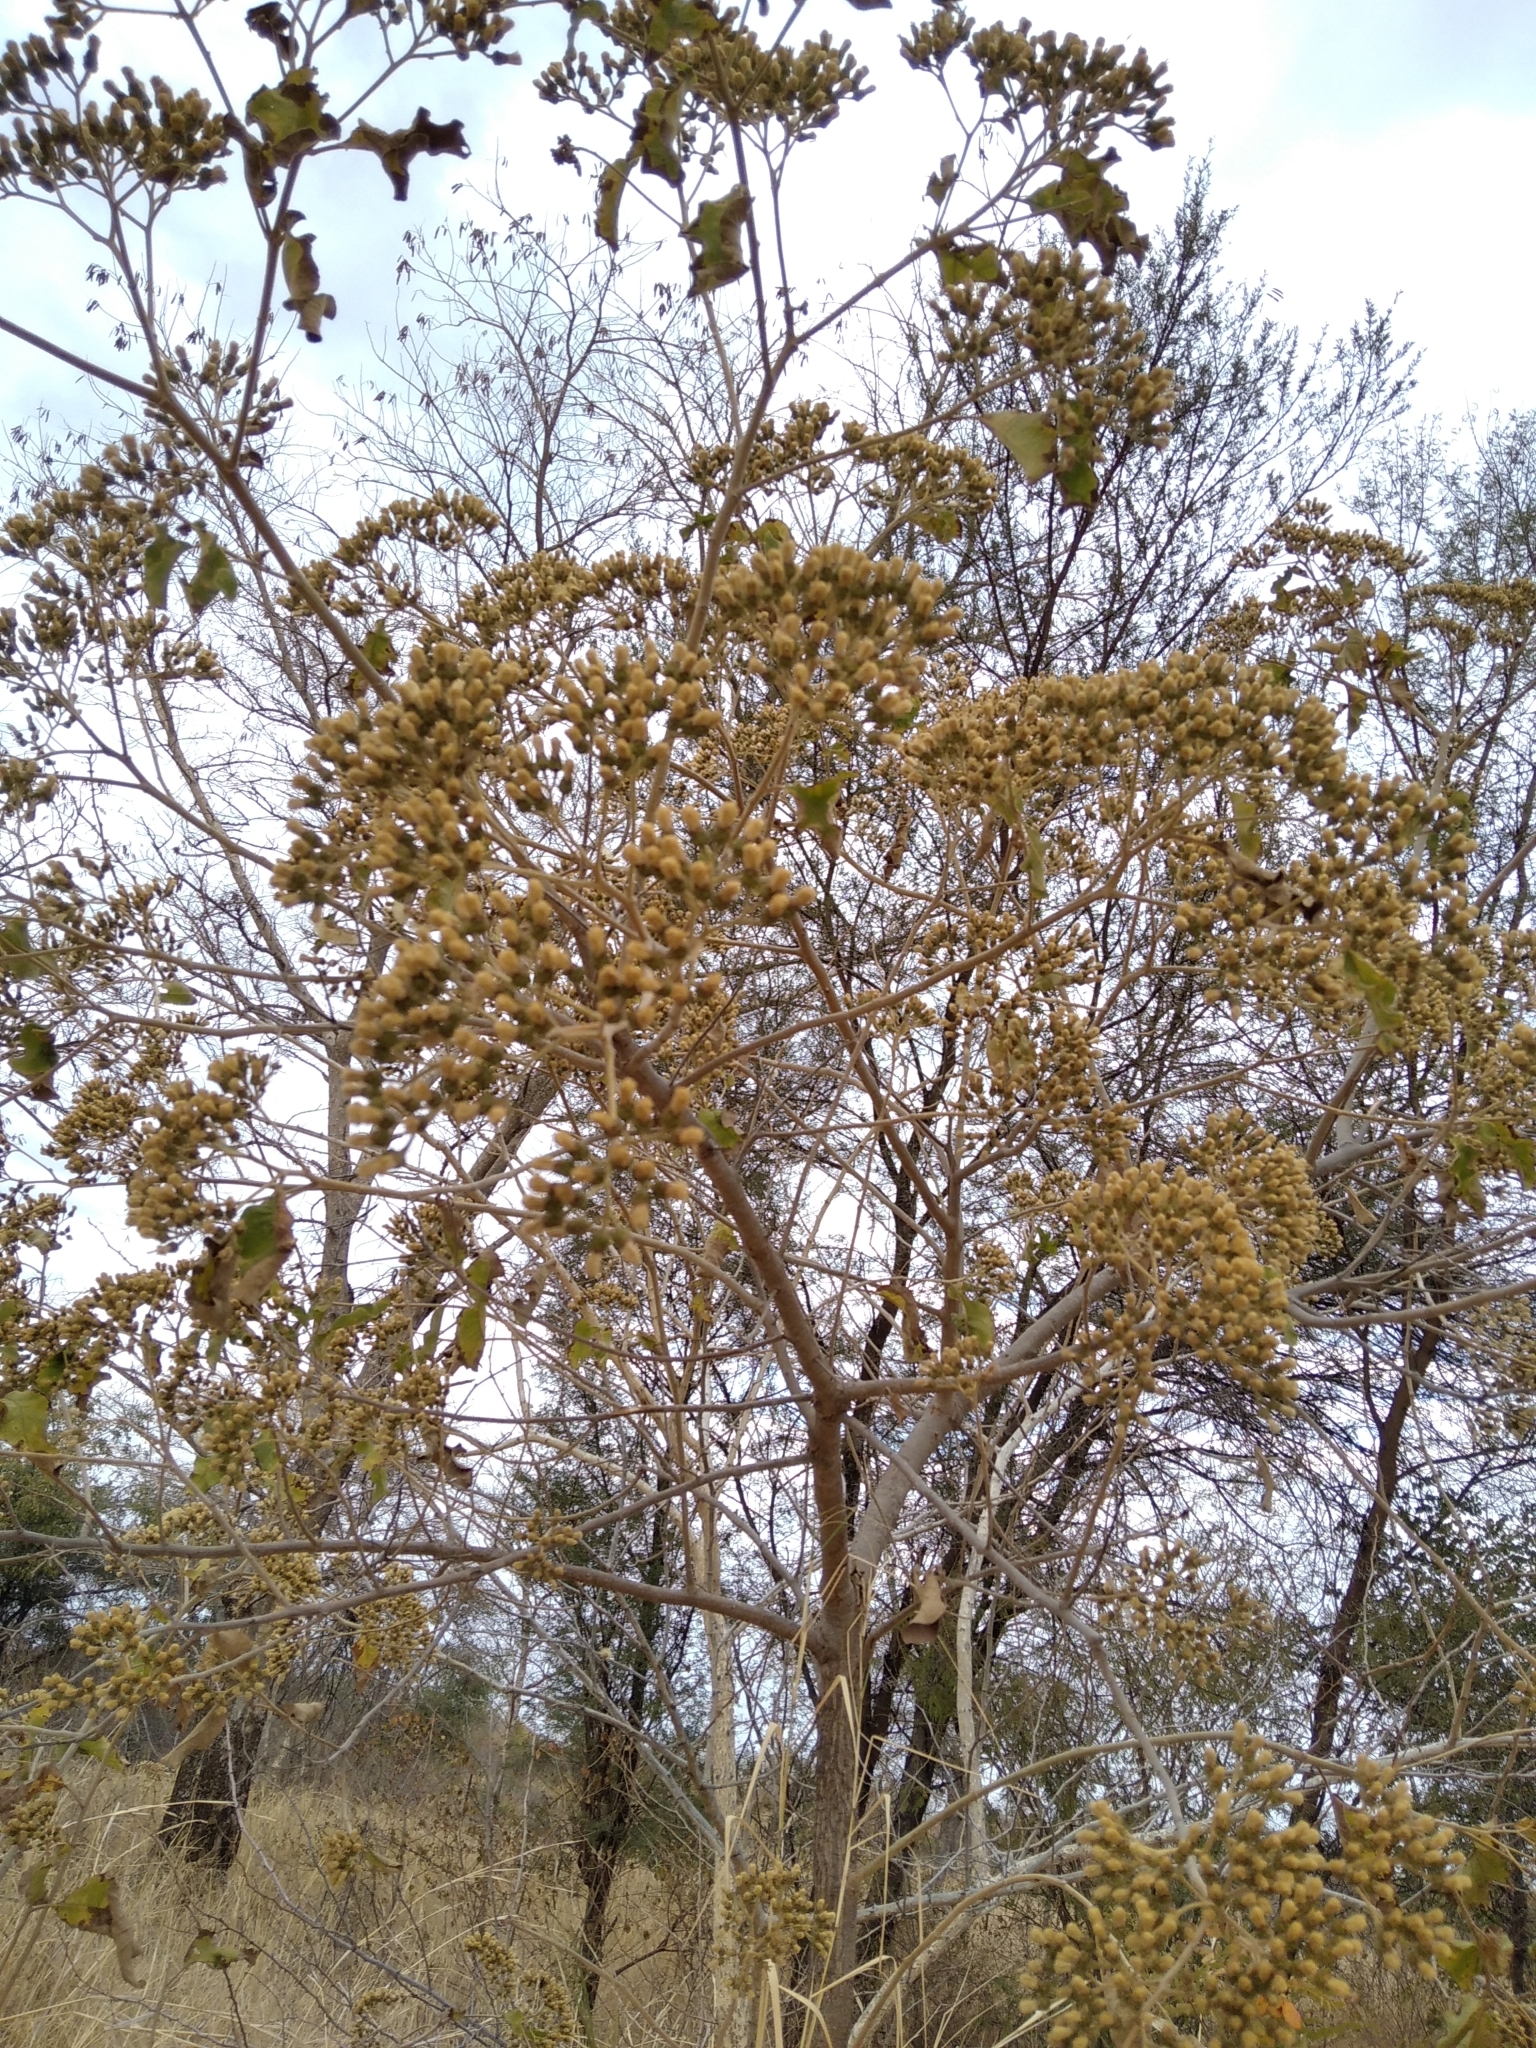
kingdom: Plantae
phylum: Tracheophyta
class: Magnoliopsida
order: Asterales
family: Asteraceae
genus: Vernonia
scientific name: Vernonia colorata
